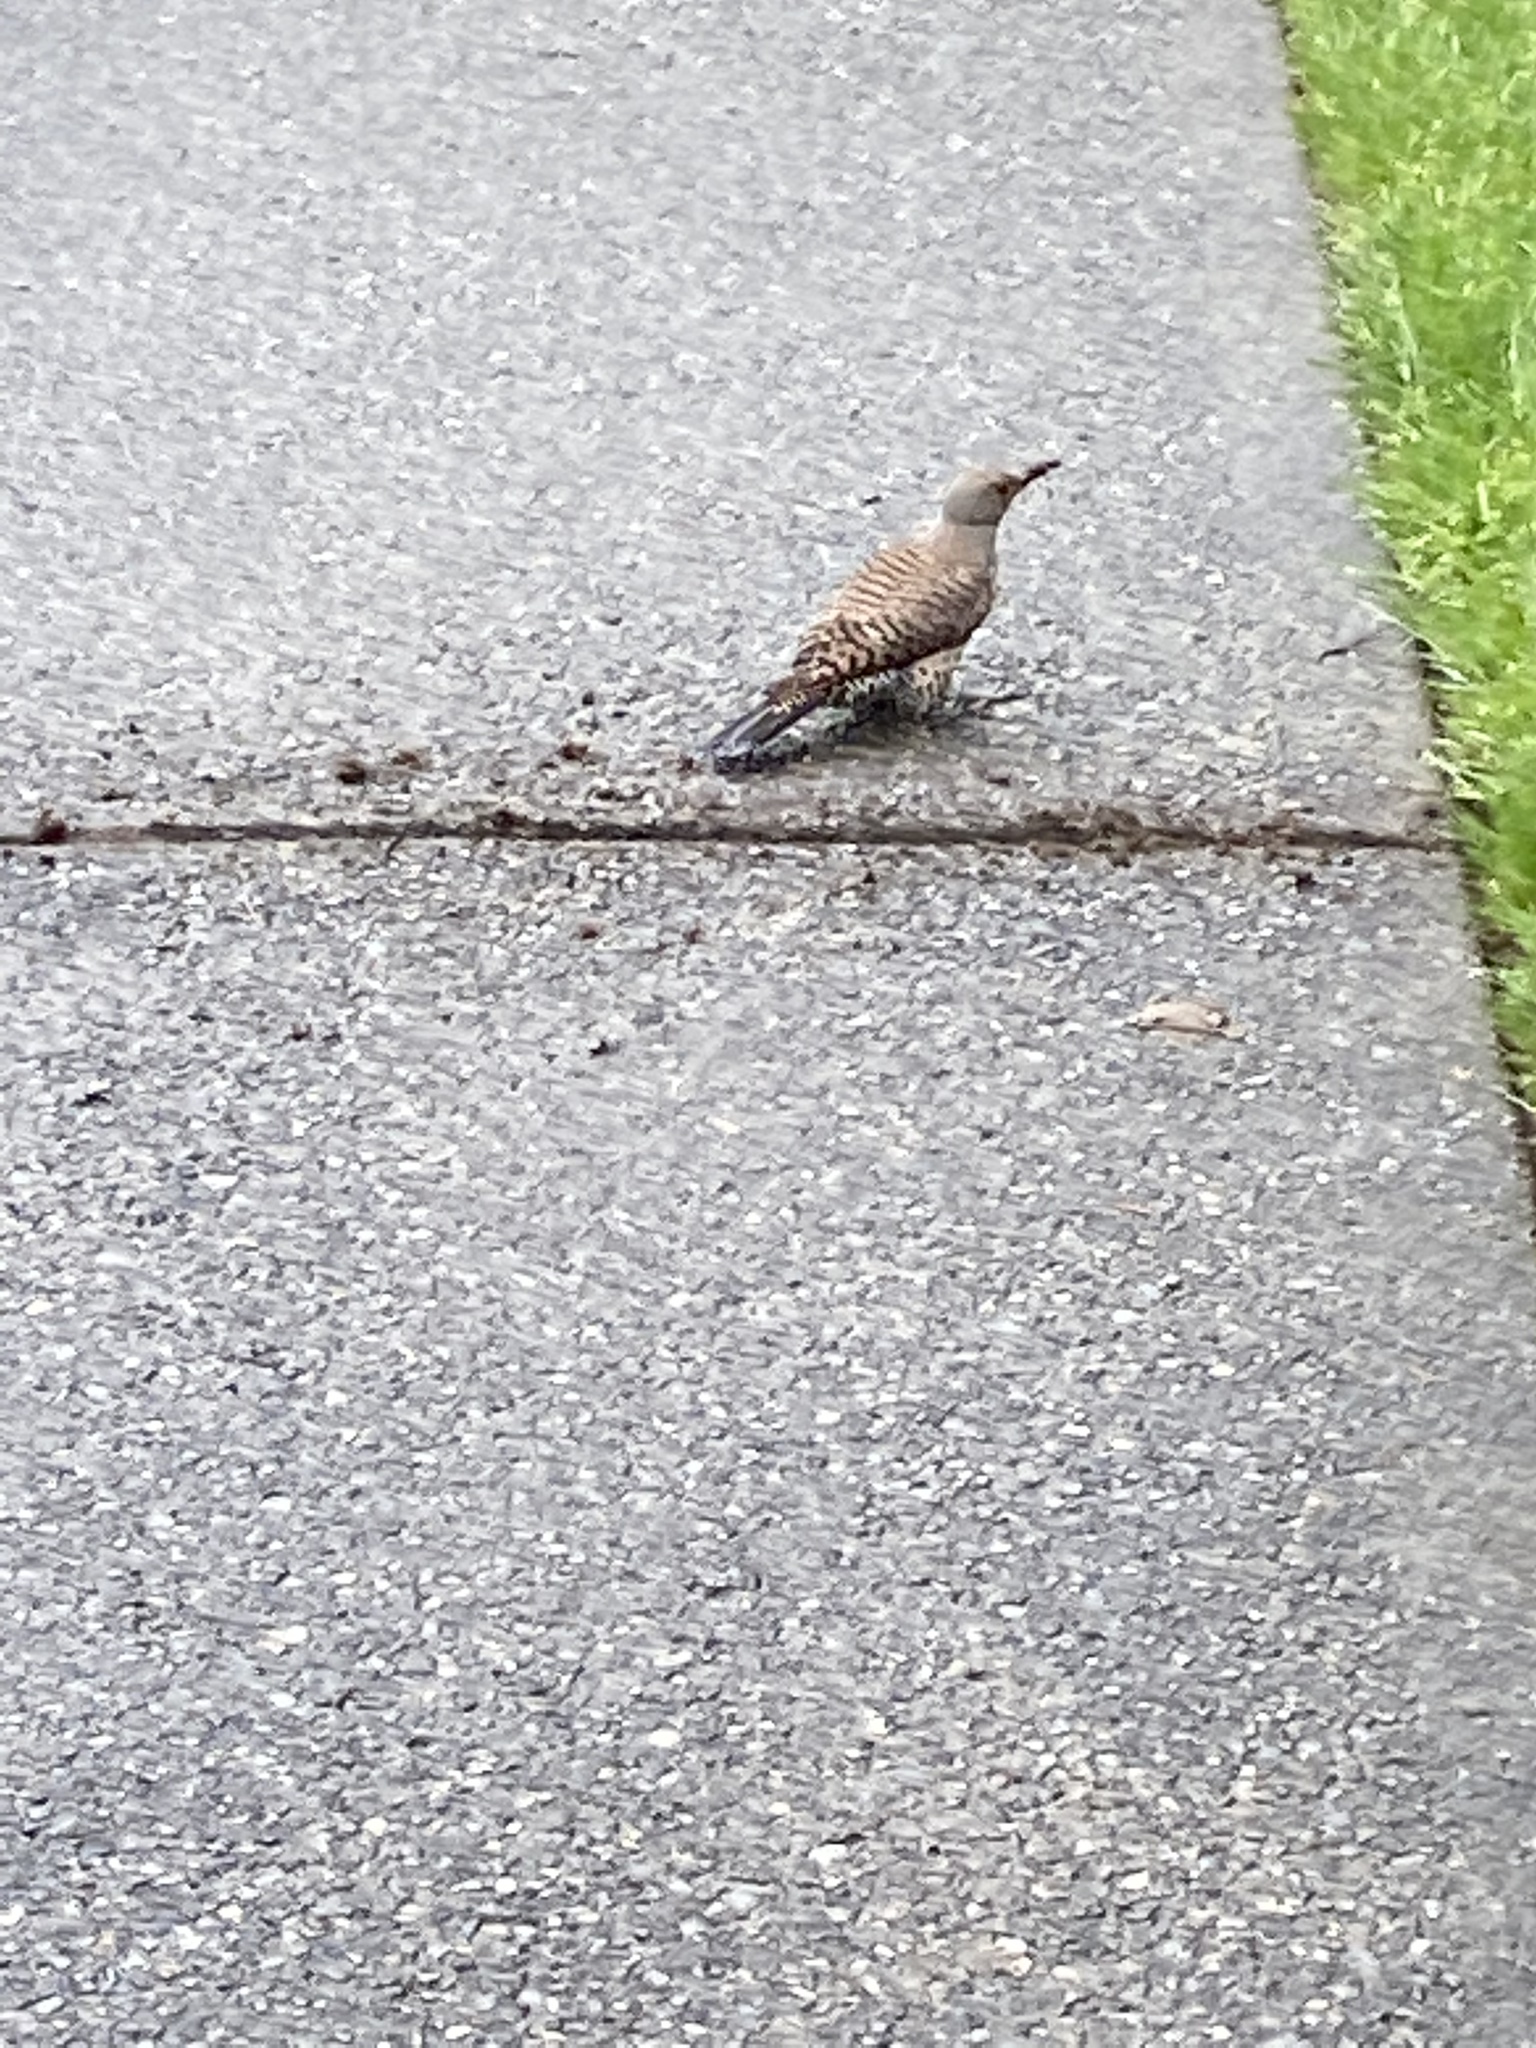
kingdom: Animalia
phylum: Chordata
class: Aves
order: Piciformes
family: Picidae
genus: Colaptes
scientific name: Colaptes auratus
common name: Northern flicker
